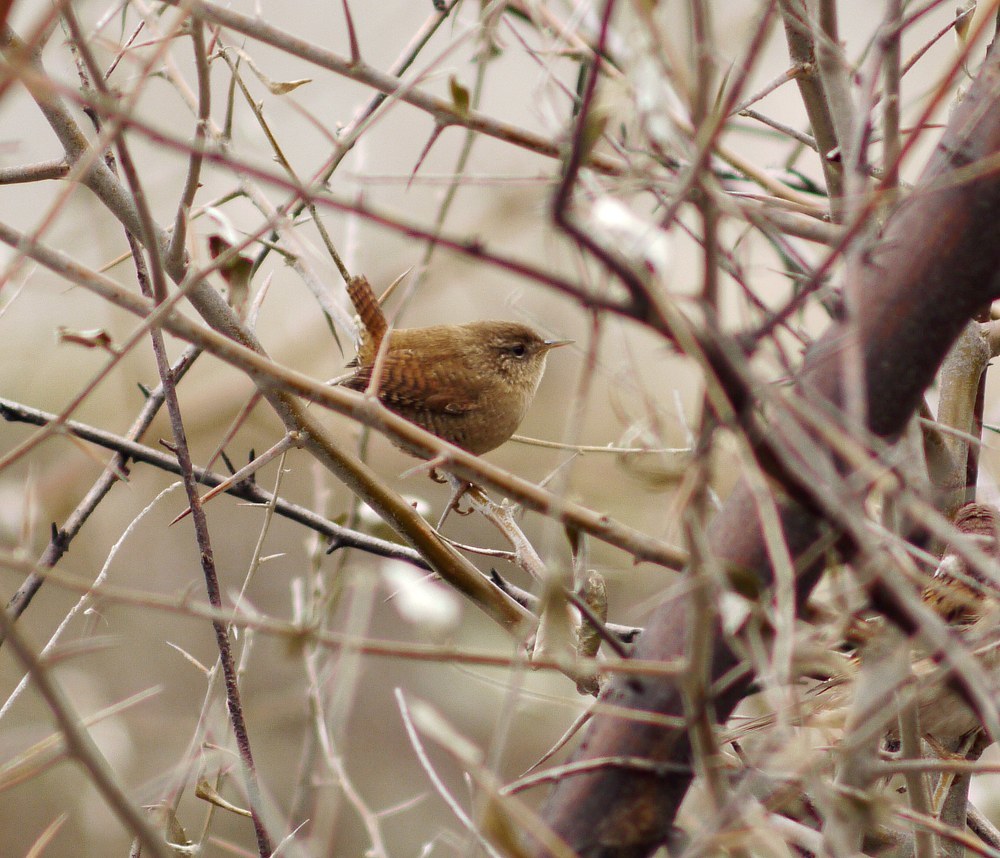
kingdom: Animalia
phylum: Chordata
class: Aves
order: Passeriformes
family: Troglodytidae
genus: Troglodytes
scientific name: Troglodytes troglodytes
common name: Eurasian wren
